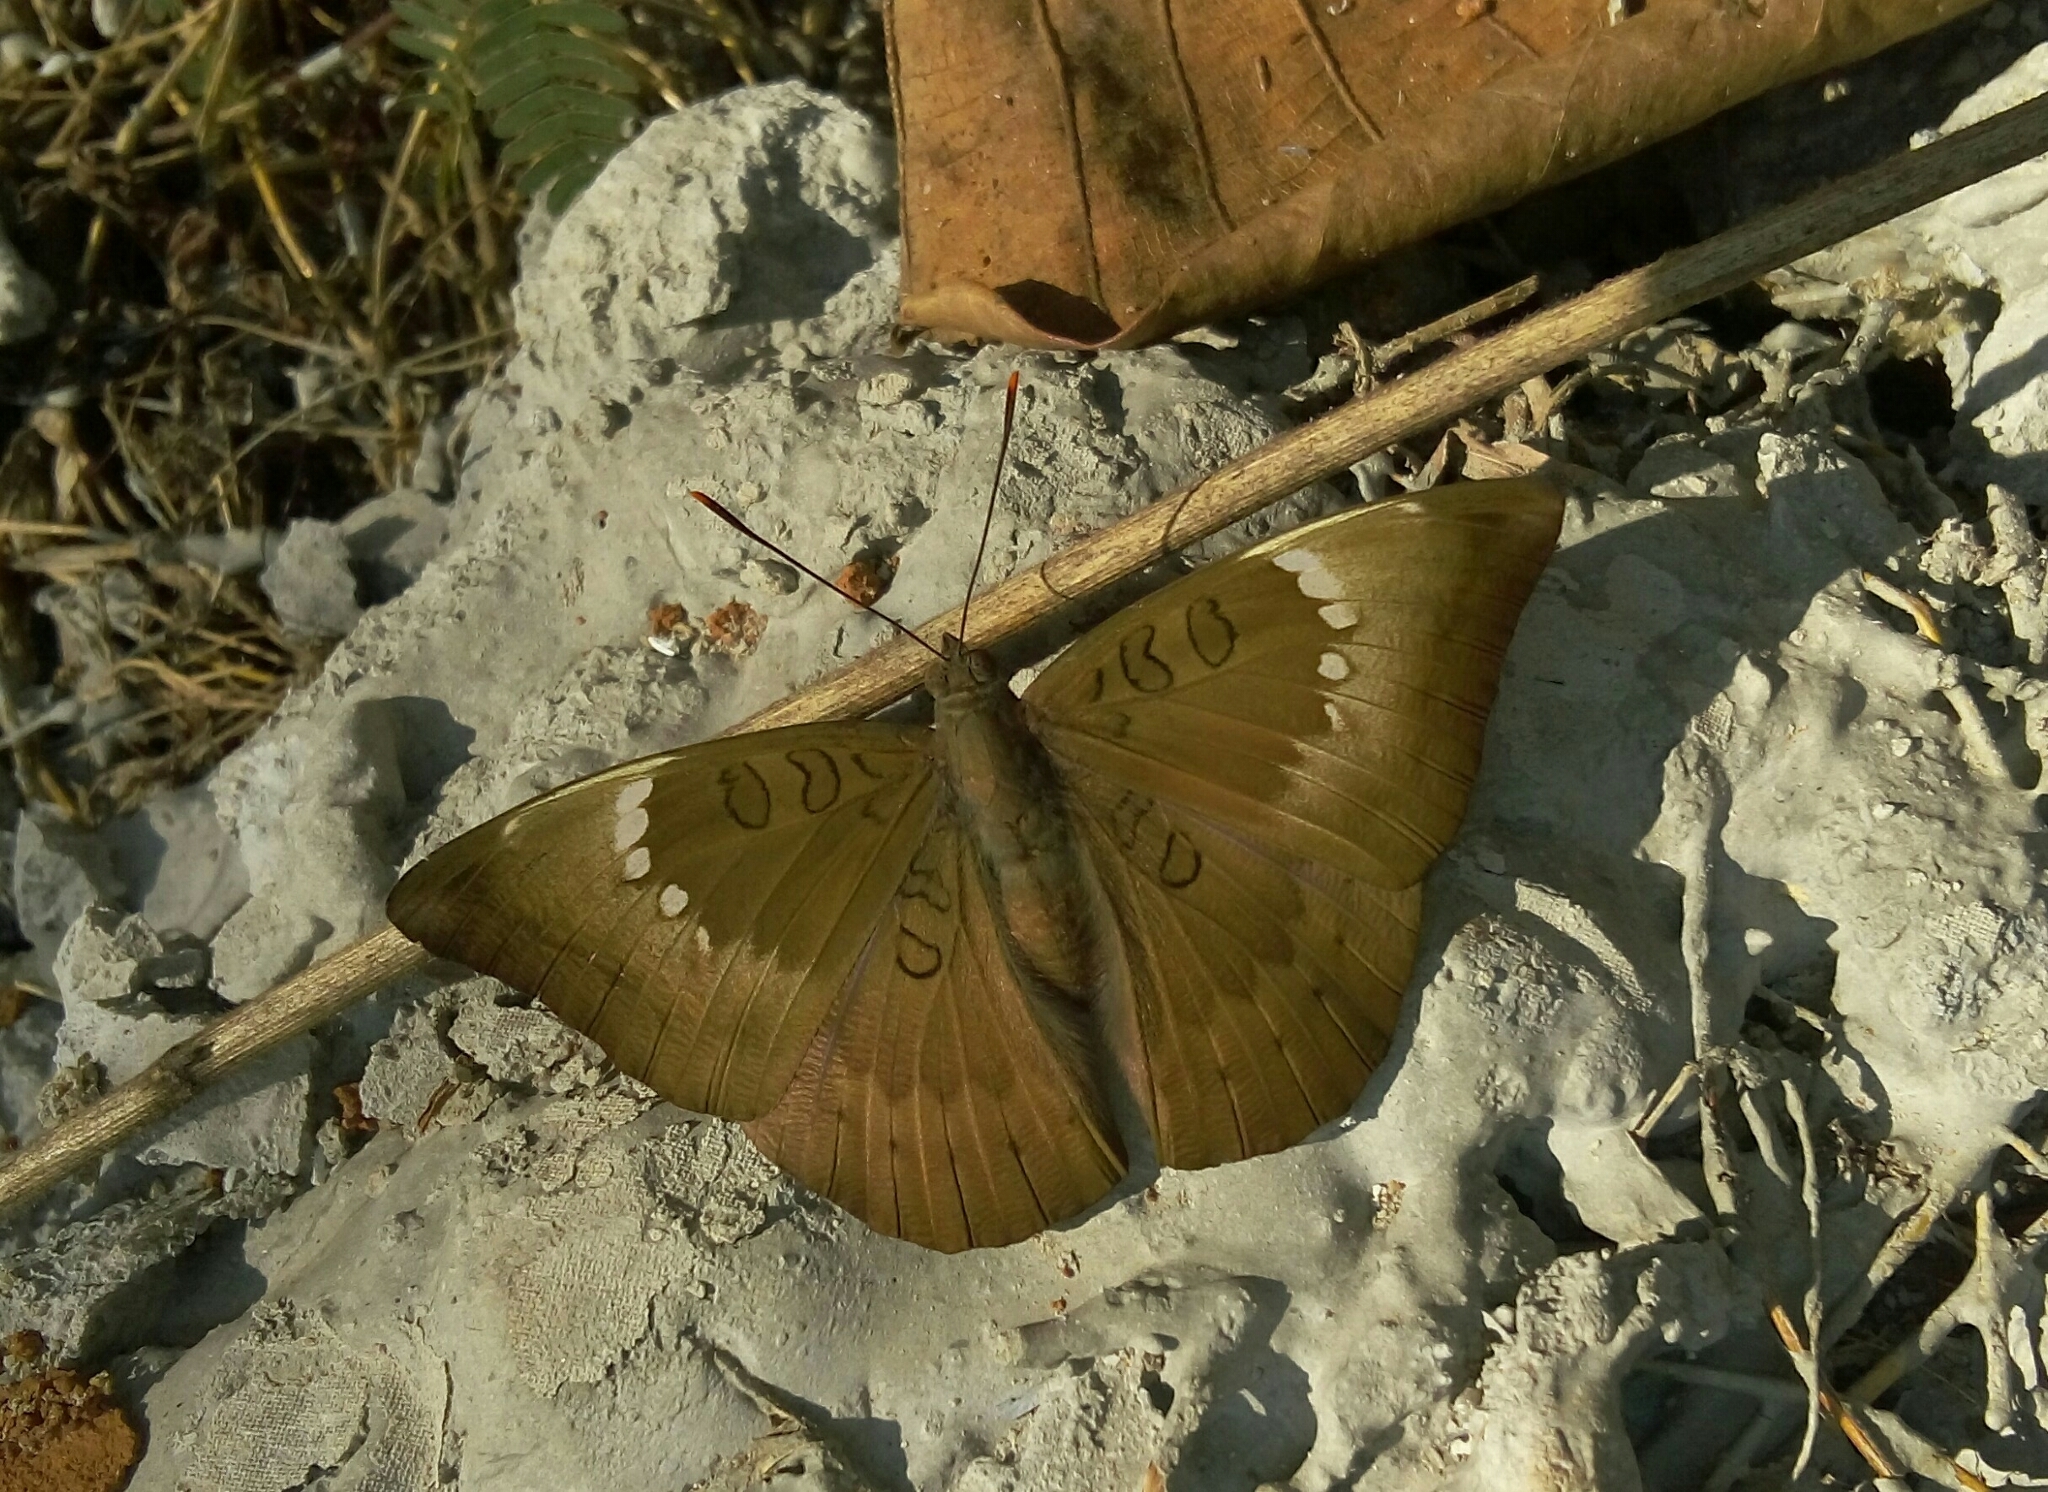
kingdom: Animalia
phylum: Arthropoda
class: Insecta
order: Lepidoptera
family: Nymphalidae
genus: Euthalia
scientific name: Euthalia aconthea
